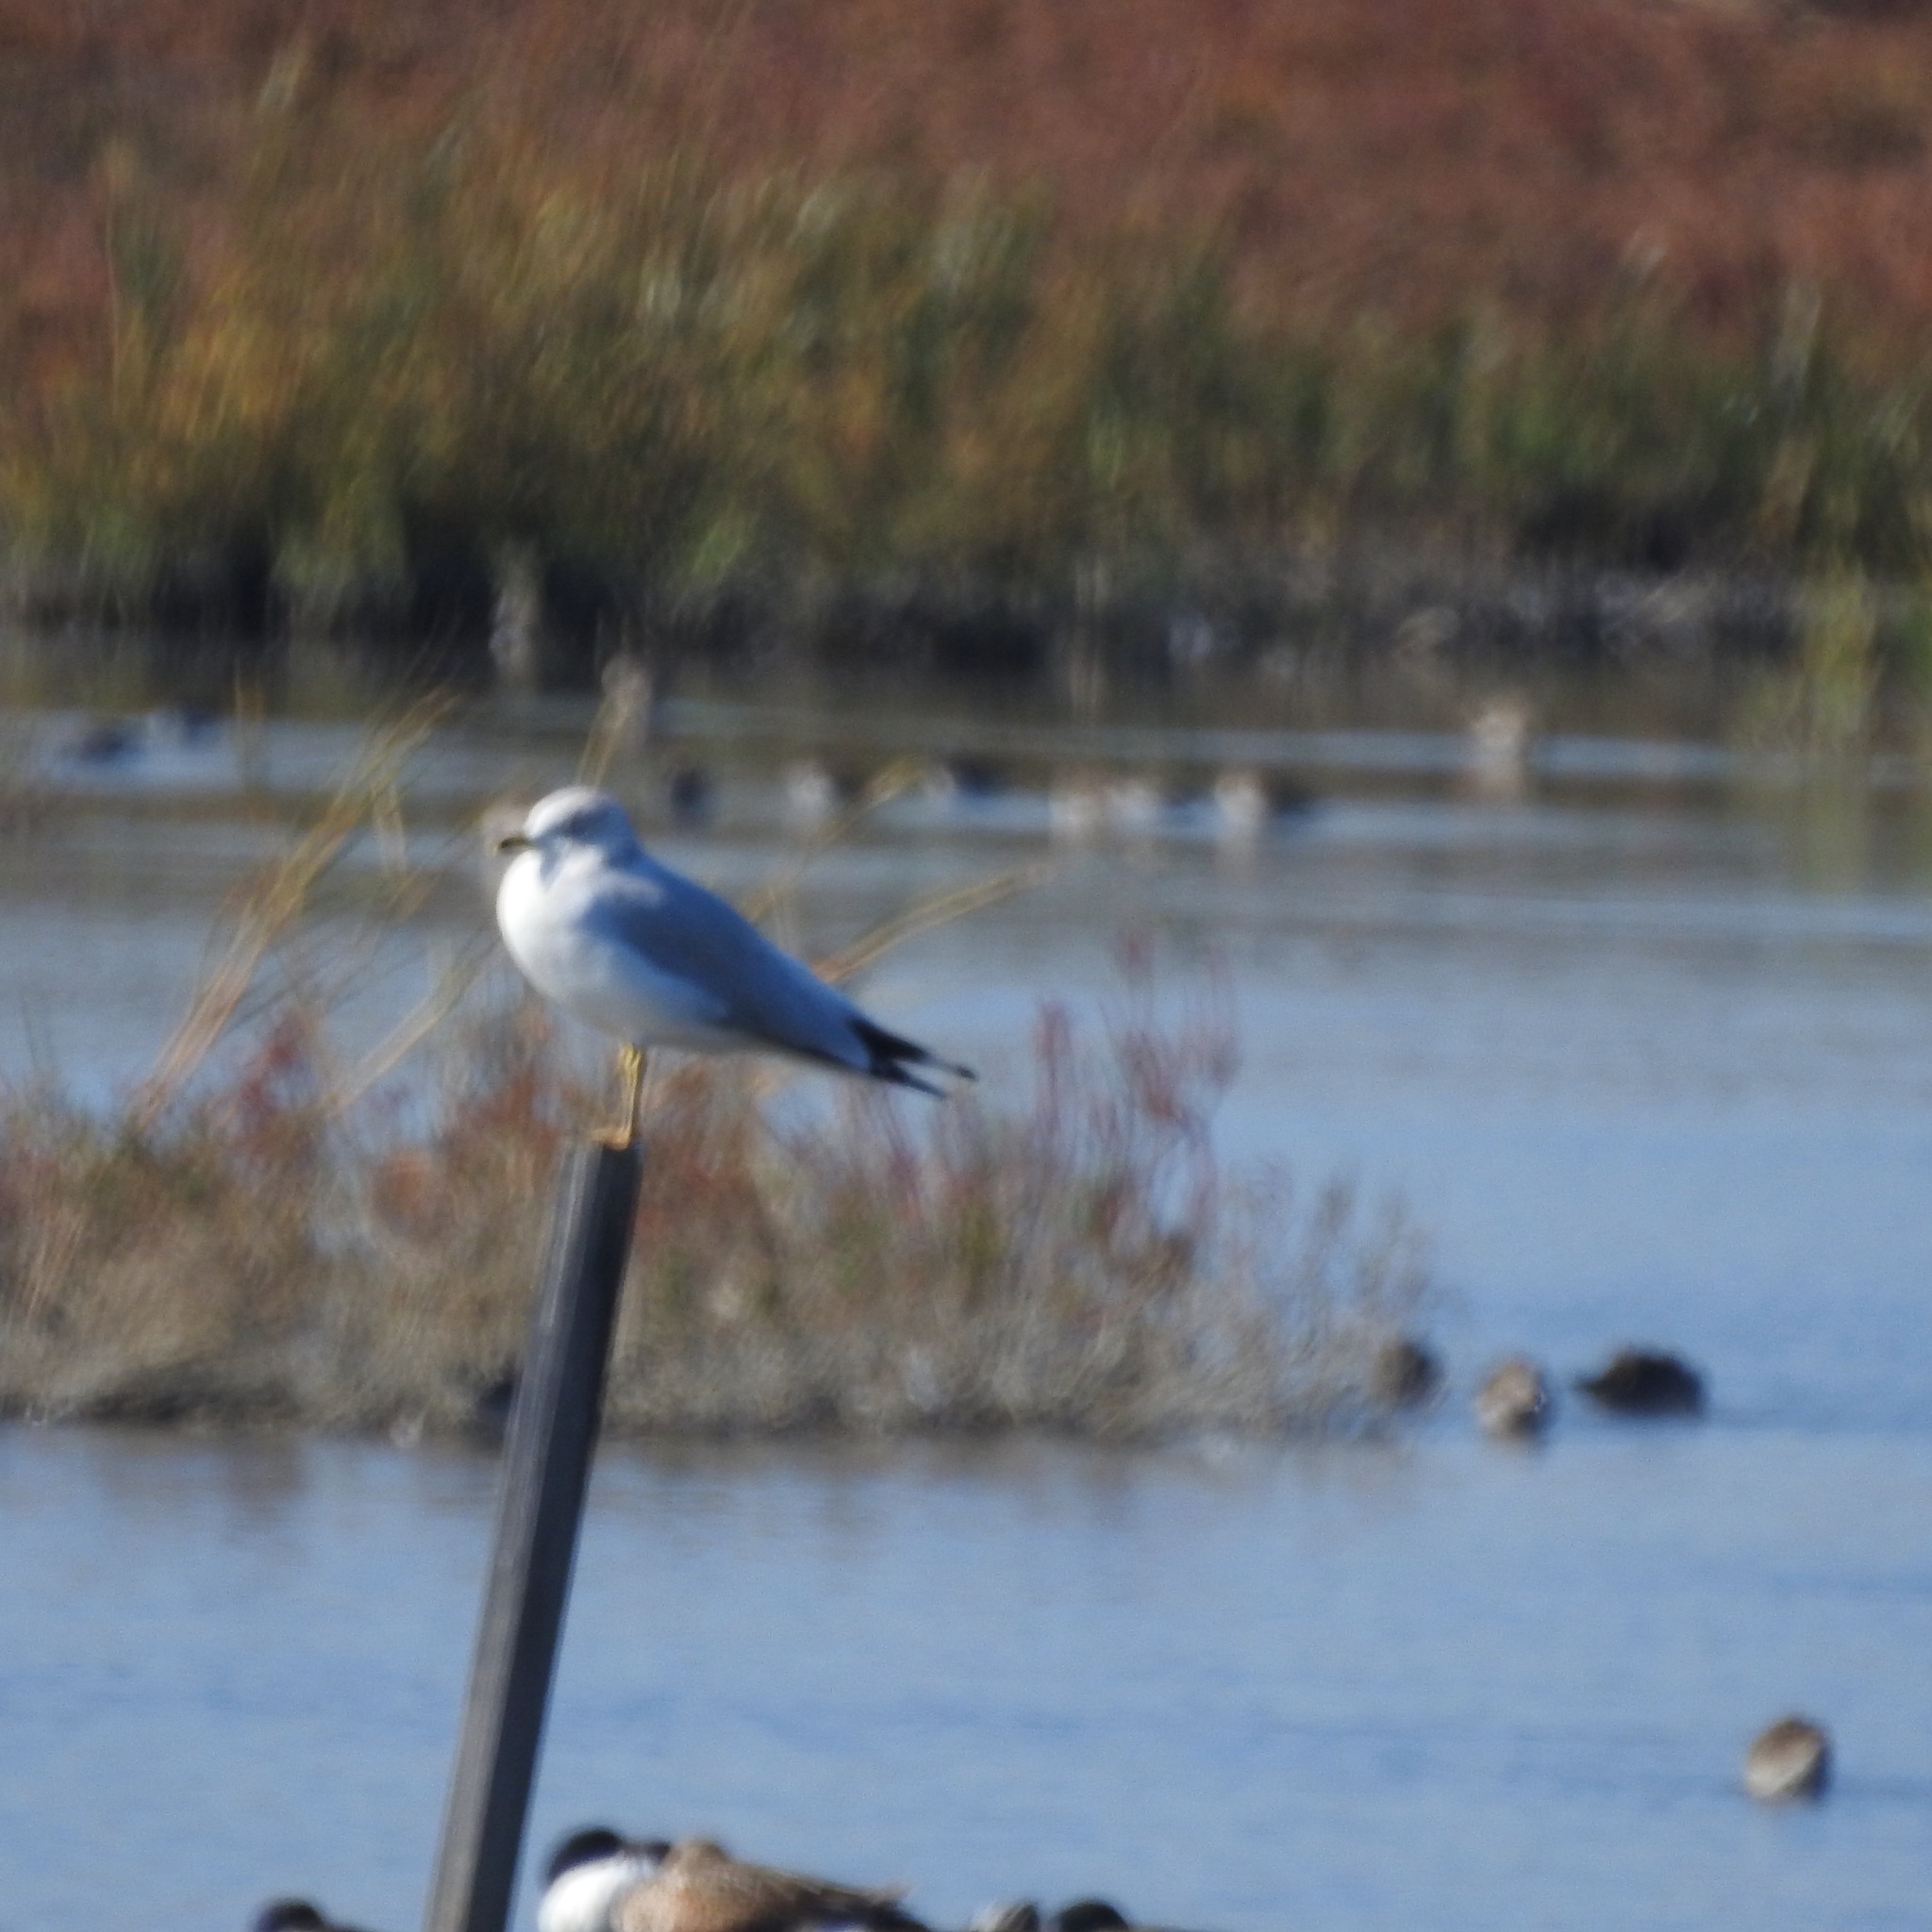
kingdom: Animalia
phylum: Chordata
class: Aves
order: Charadriiformes
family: Laridae
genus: Larus
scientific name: Larus delawarensis
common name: Ring-billed gull
